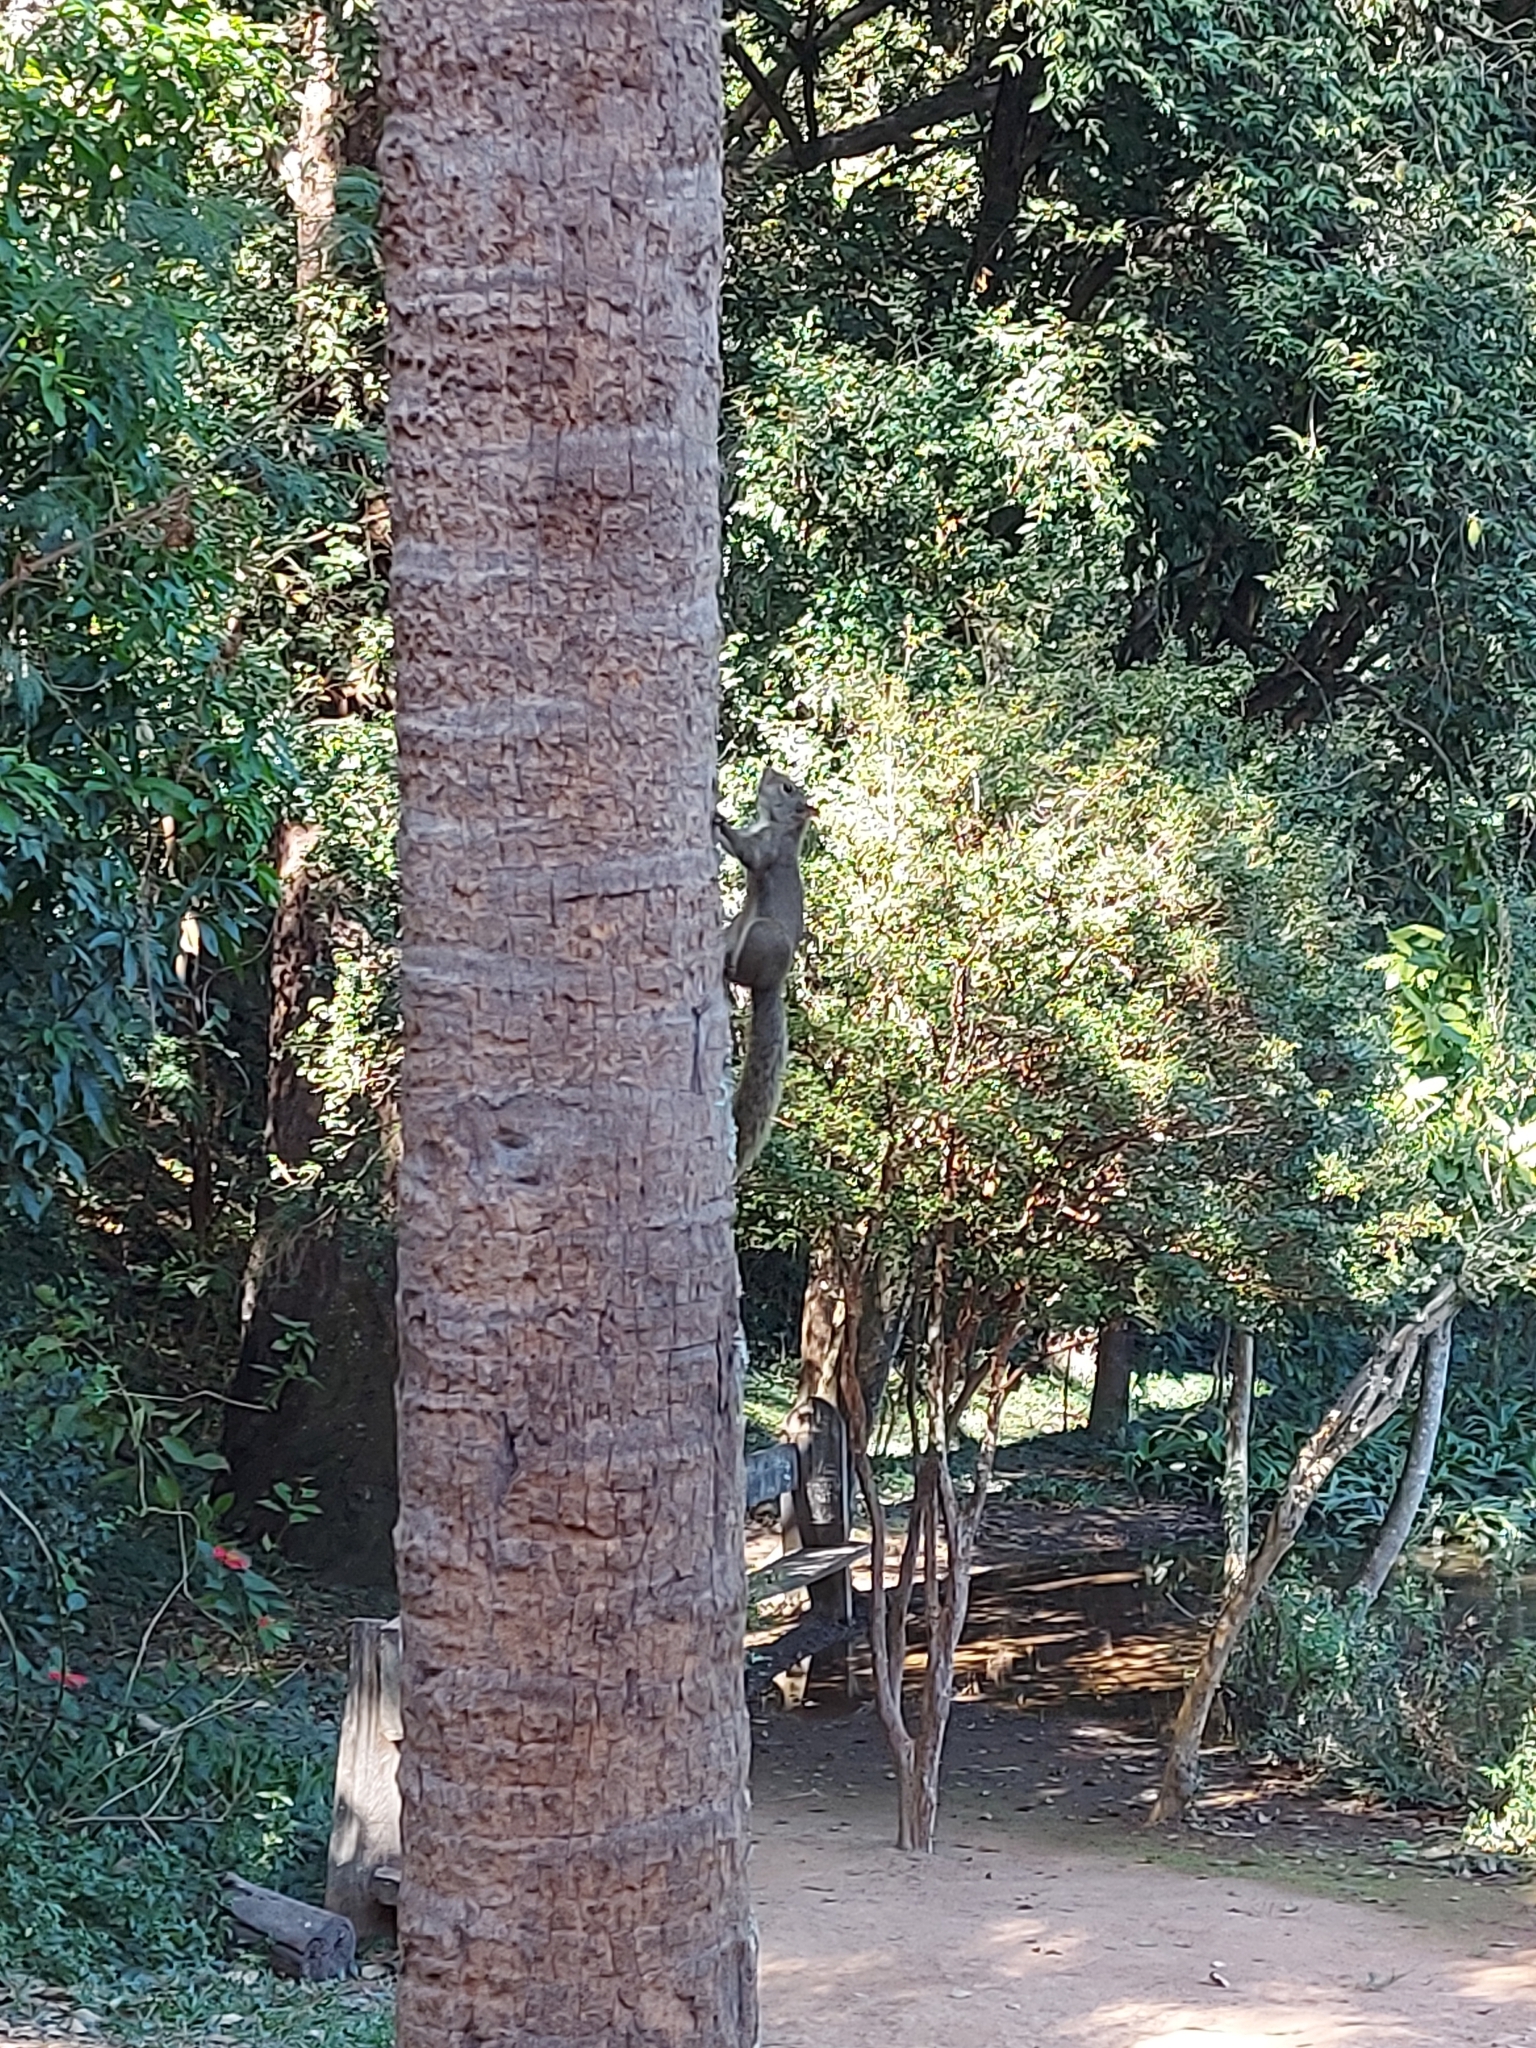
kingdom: Animalia
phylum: Chordata
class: Mammalia
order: Rodentia
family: Sciuridae
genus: Sciurus
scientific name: Sciurus aestuans
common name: Guianan squirrel
